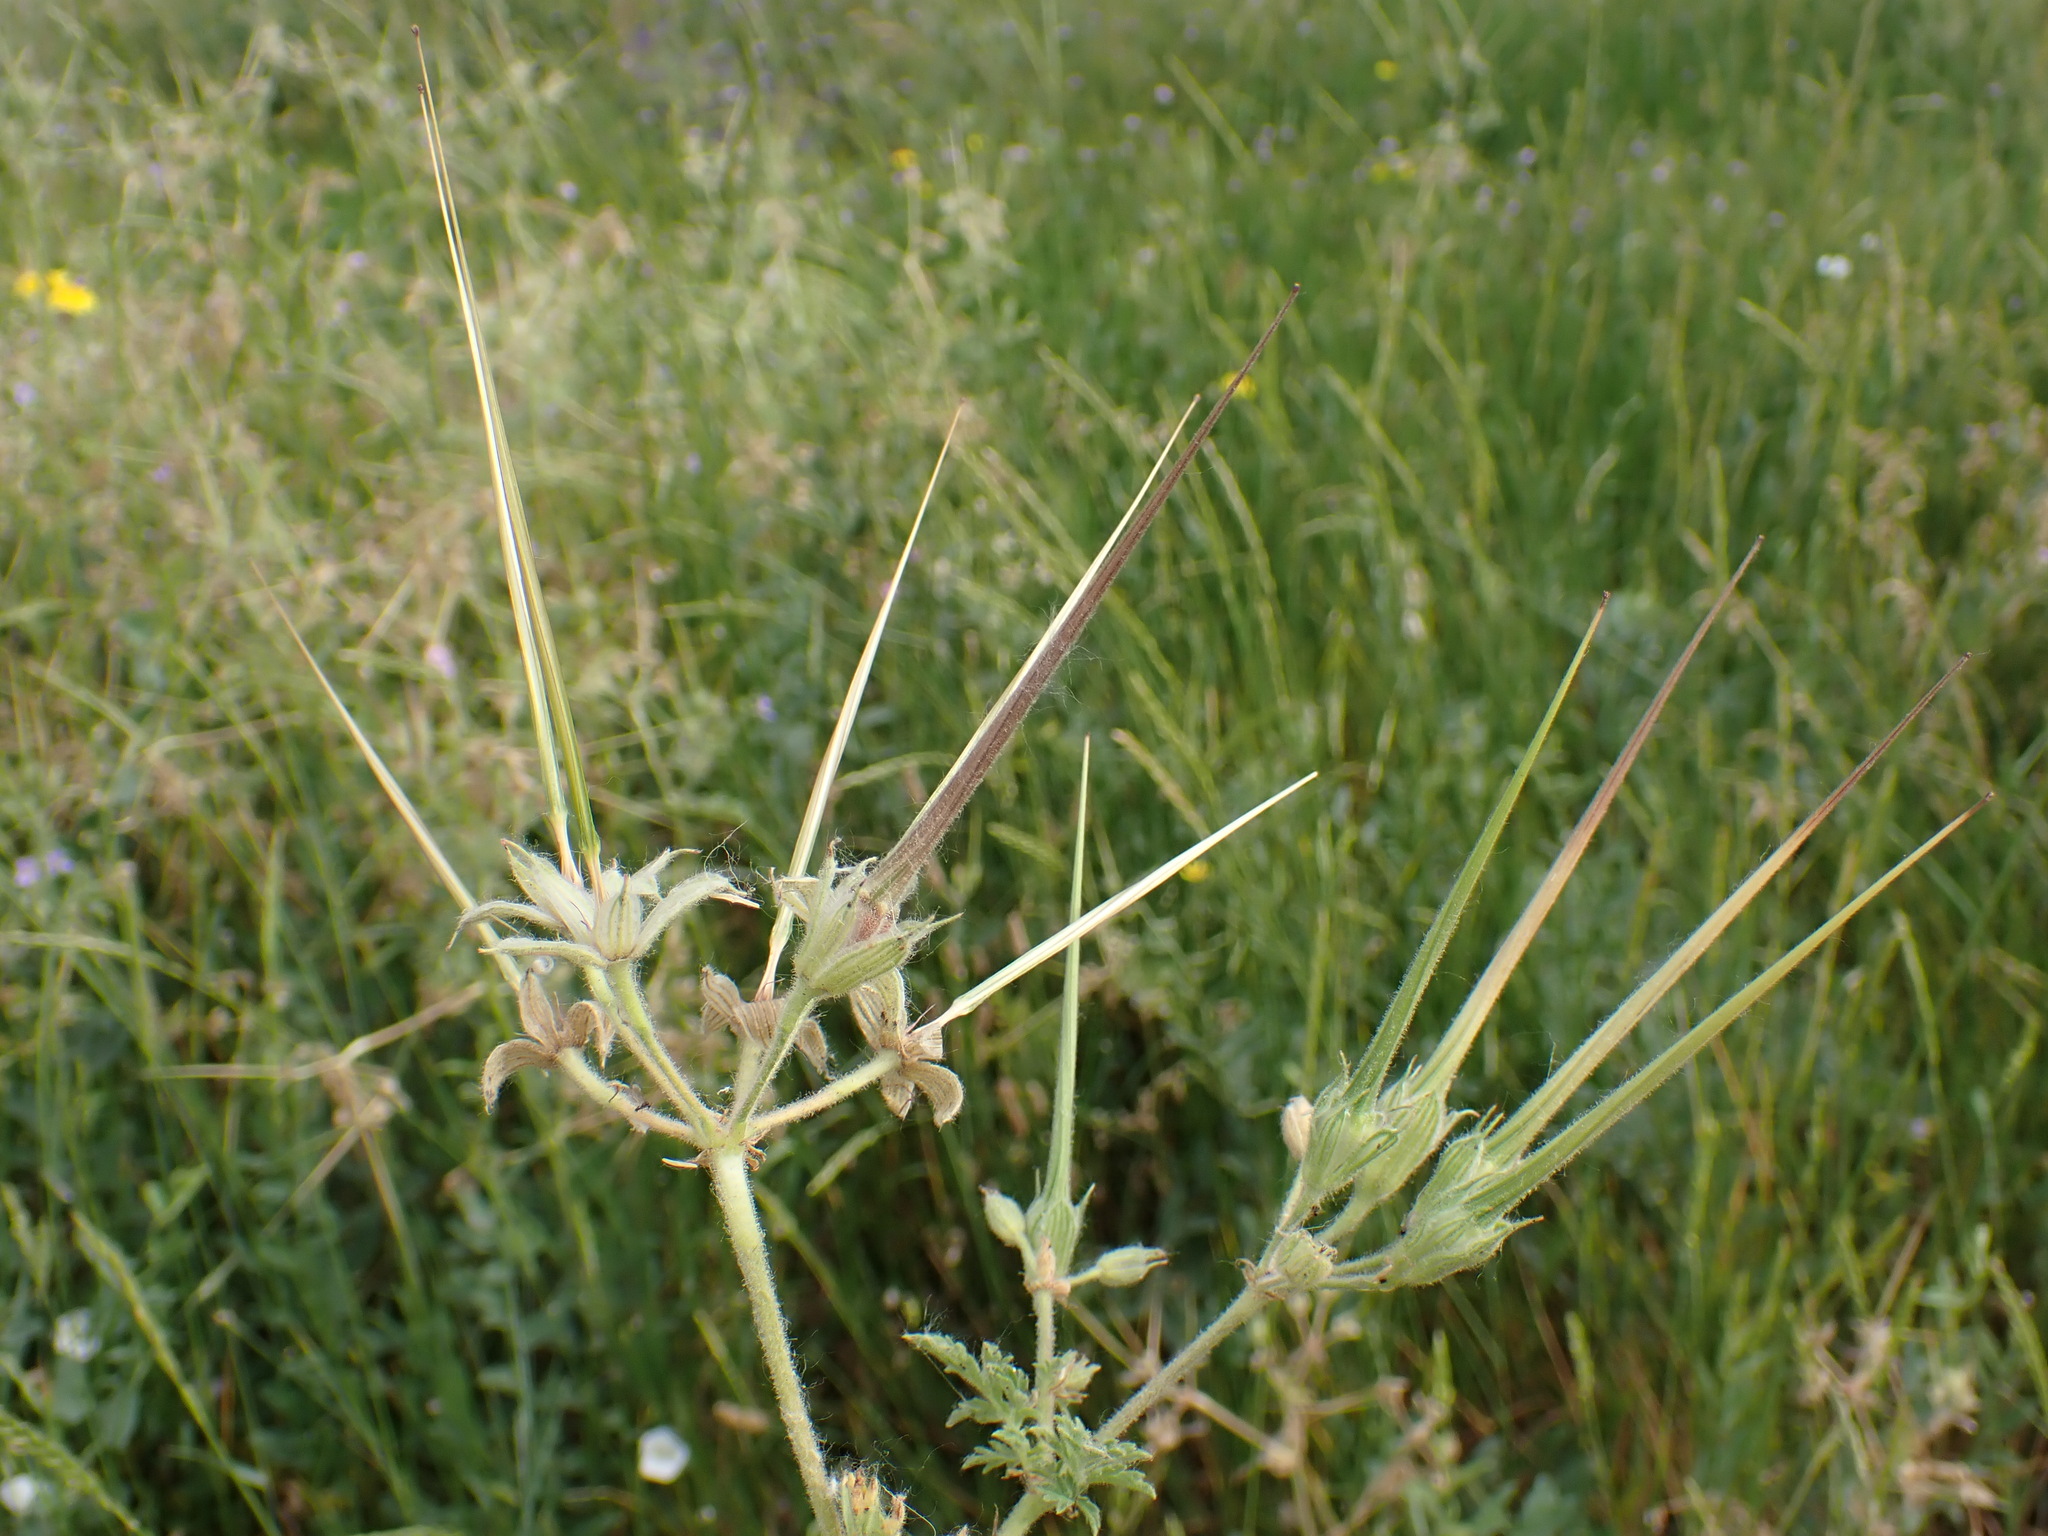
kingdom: Plantae
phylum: Tracheophyta
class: Magnoliopsida
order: Geraniales
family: Geraniaceae
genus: Erodium
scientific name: Erodium ciconium
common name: Common stork's bill
